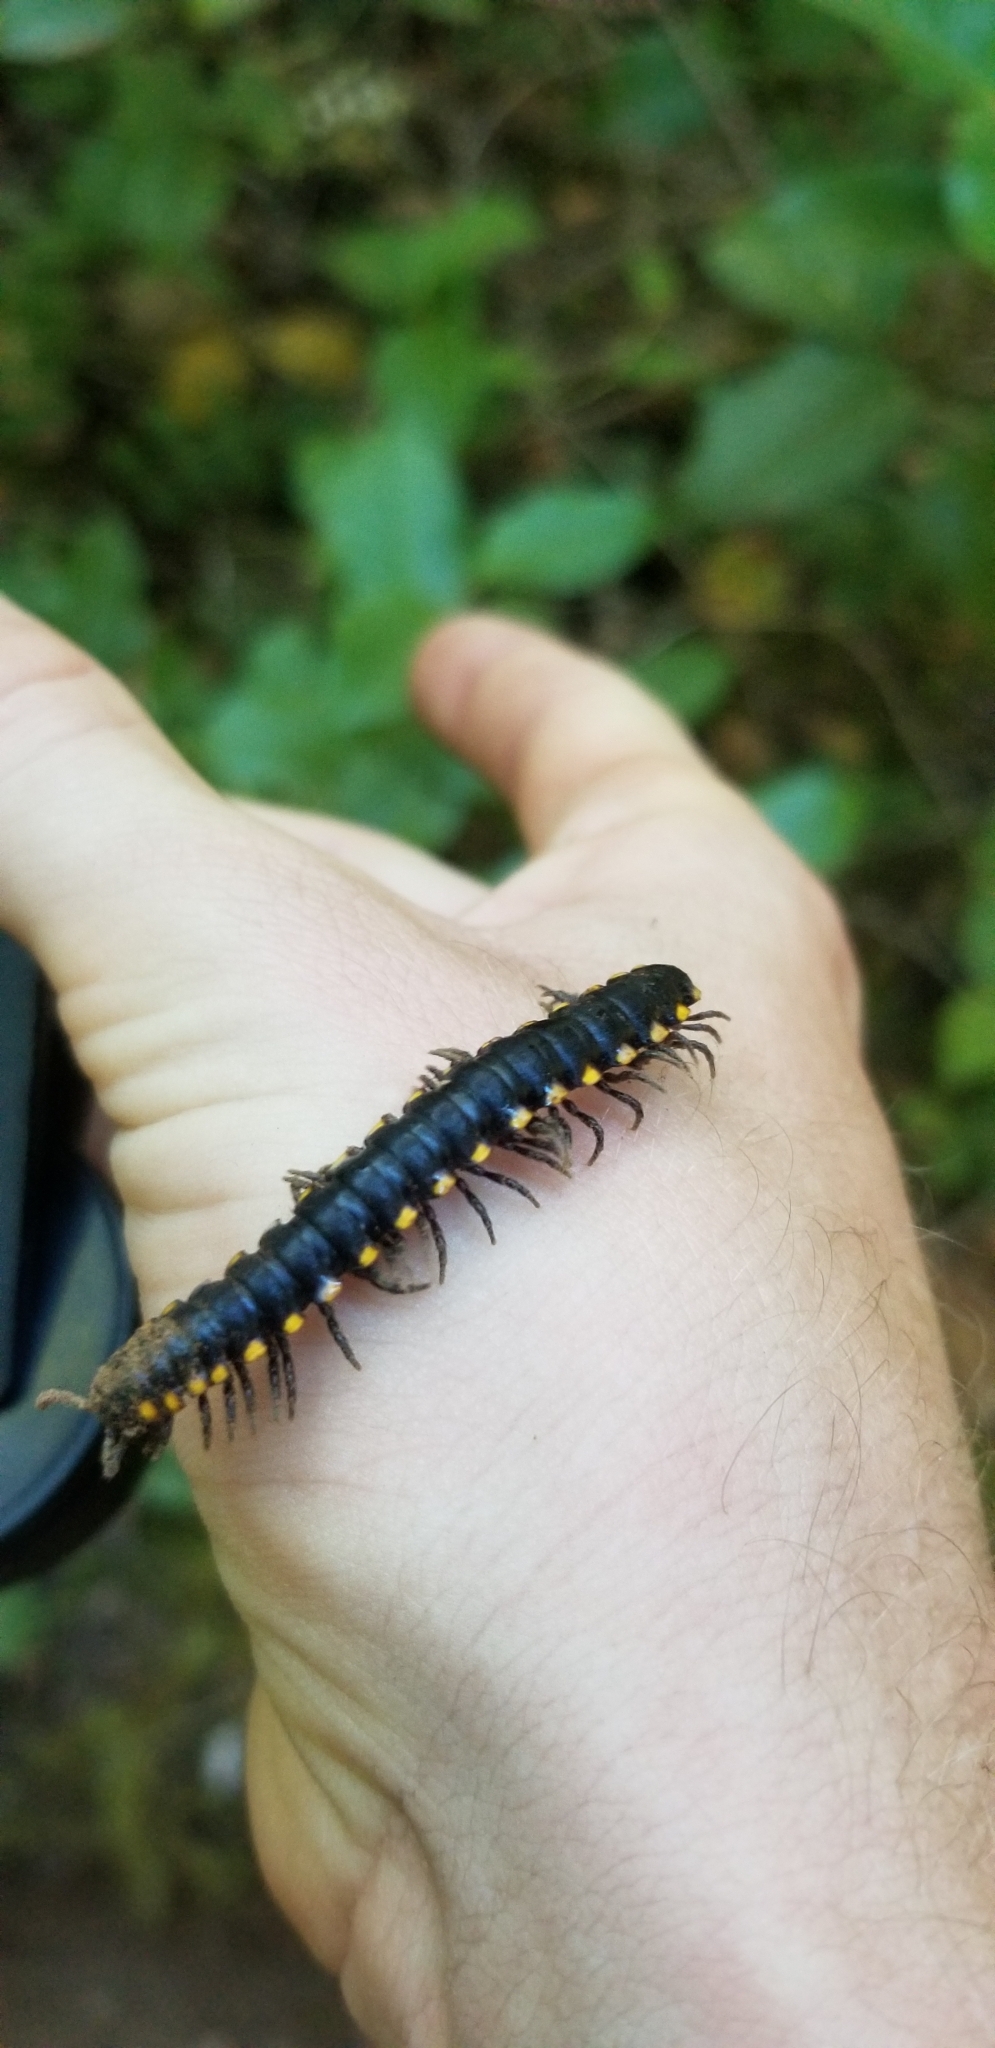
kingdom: Animalia
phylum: Arthropoda
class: Diplopoda
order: Polydesmida
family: Xystodesmidae
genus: Harpaphe
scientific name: Harpaphe haydeniana
